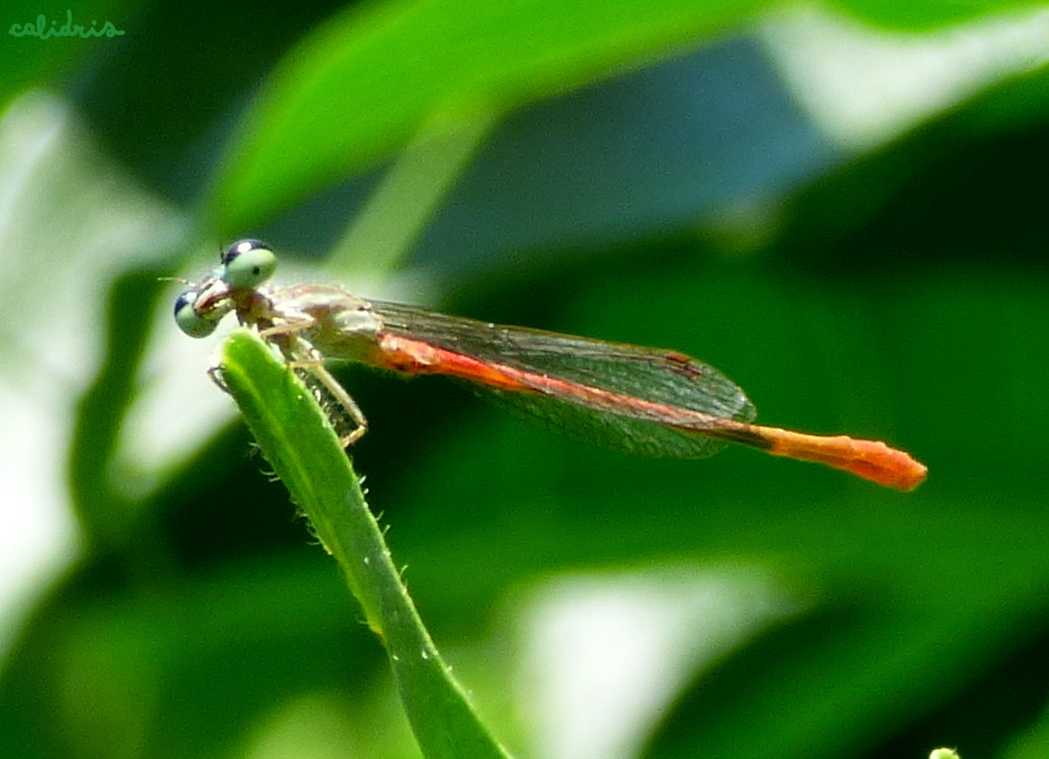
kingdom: Animalia
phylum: Arthropoda
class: Insecta
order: Odonata
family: Coenagrionidae
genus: Telebasis
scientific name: Telebasis willinki
